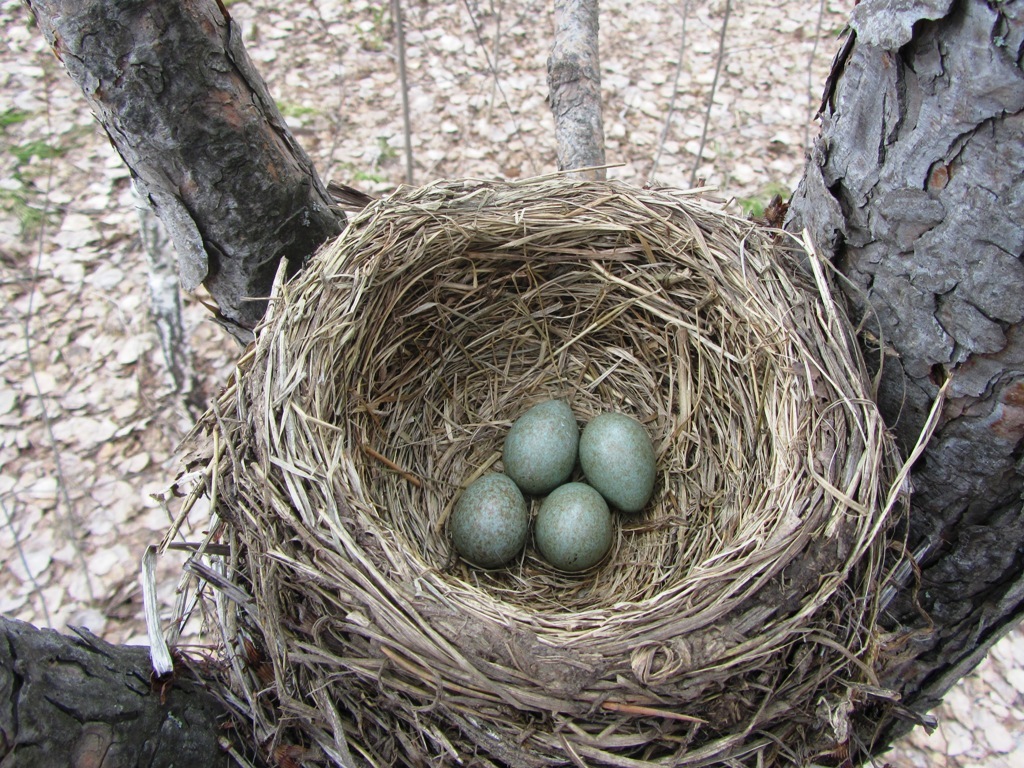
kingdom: Animalia
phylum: Chordata
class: Aves
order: Passeriformes
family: Turdidae
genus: Turdus
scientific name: Turdus pilaris
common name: Fieldfare
